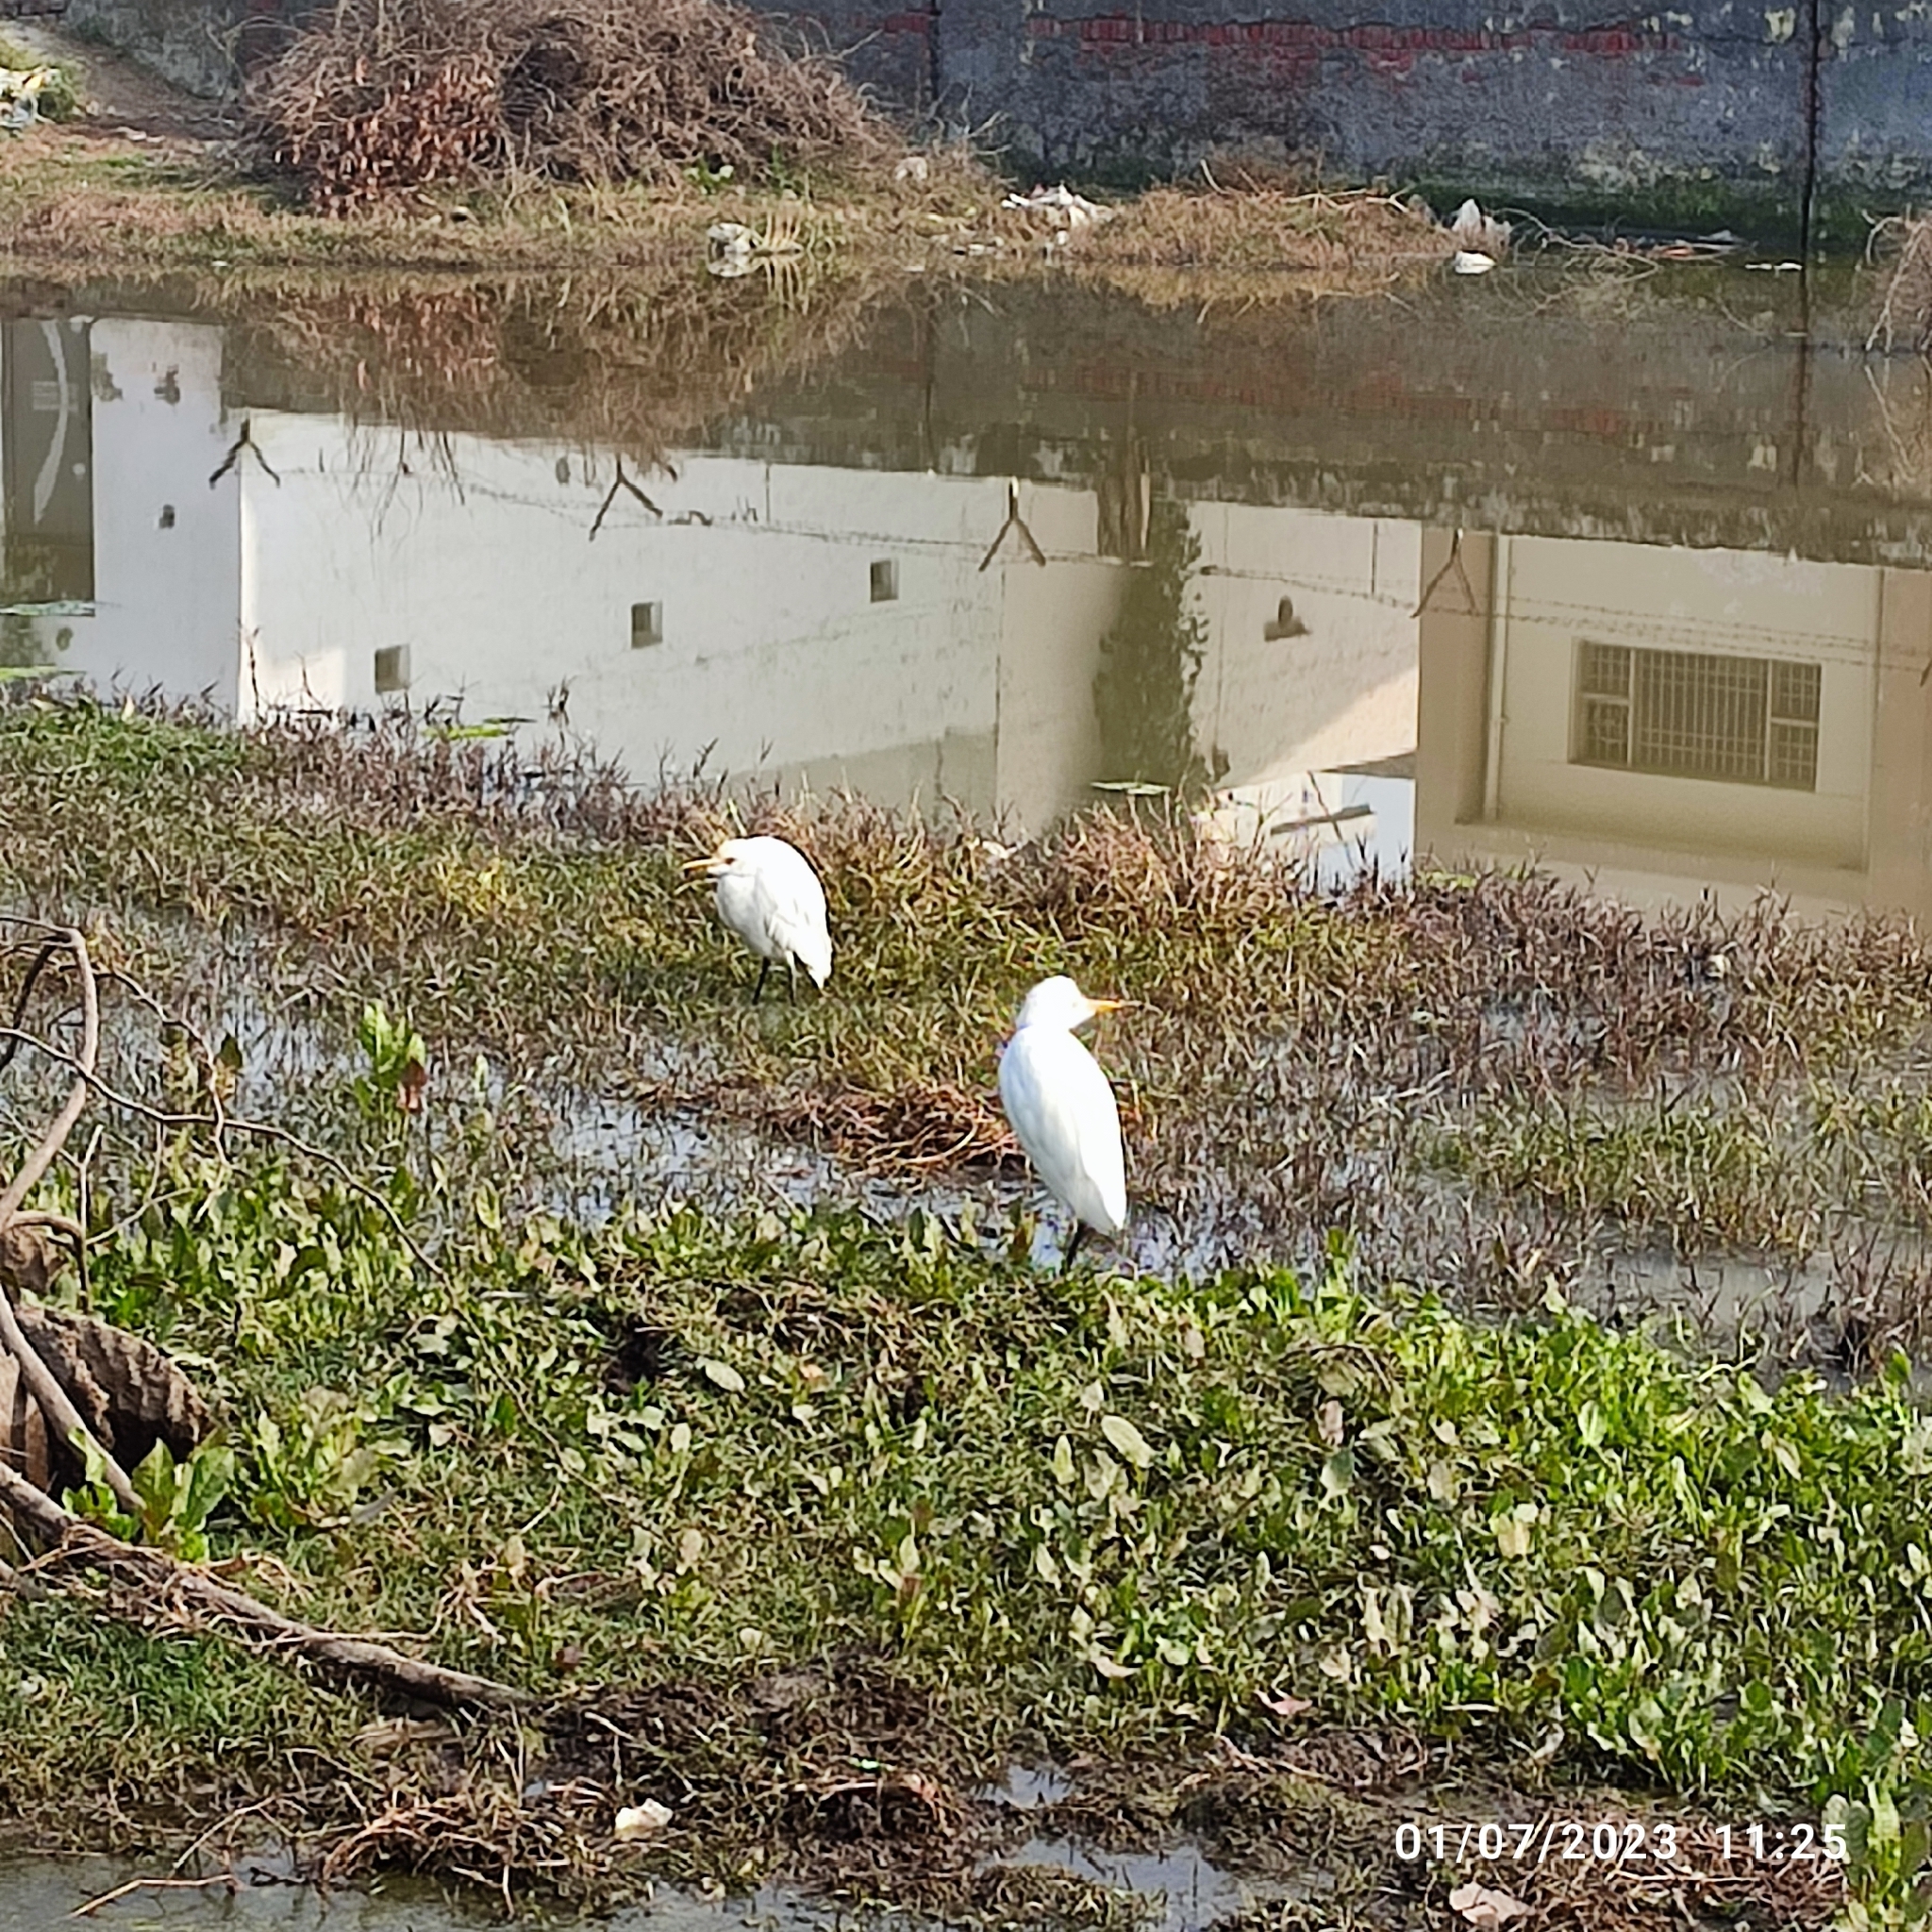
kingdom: Animalia
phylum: Chordata
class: Aves
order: Pelecaniformes
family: Ardeidae
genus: Bubulcus
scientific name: Bubulcus coromandus
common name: Eastern cattle egret
